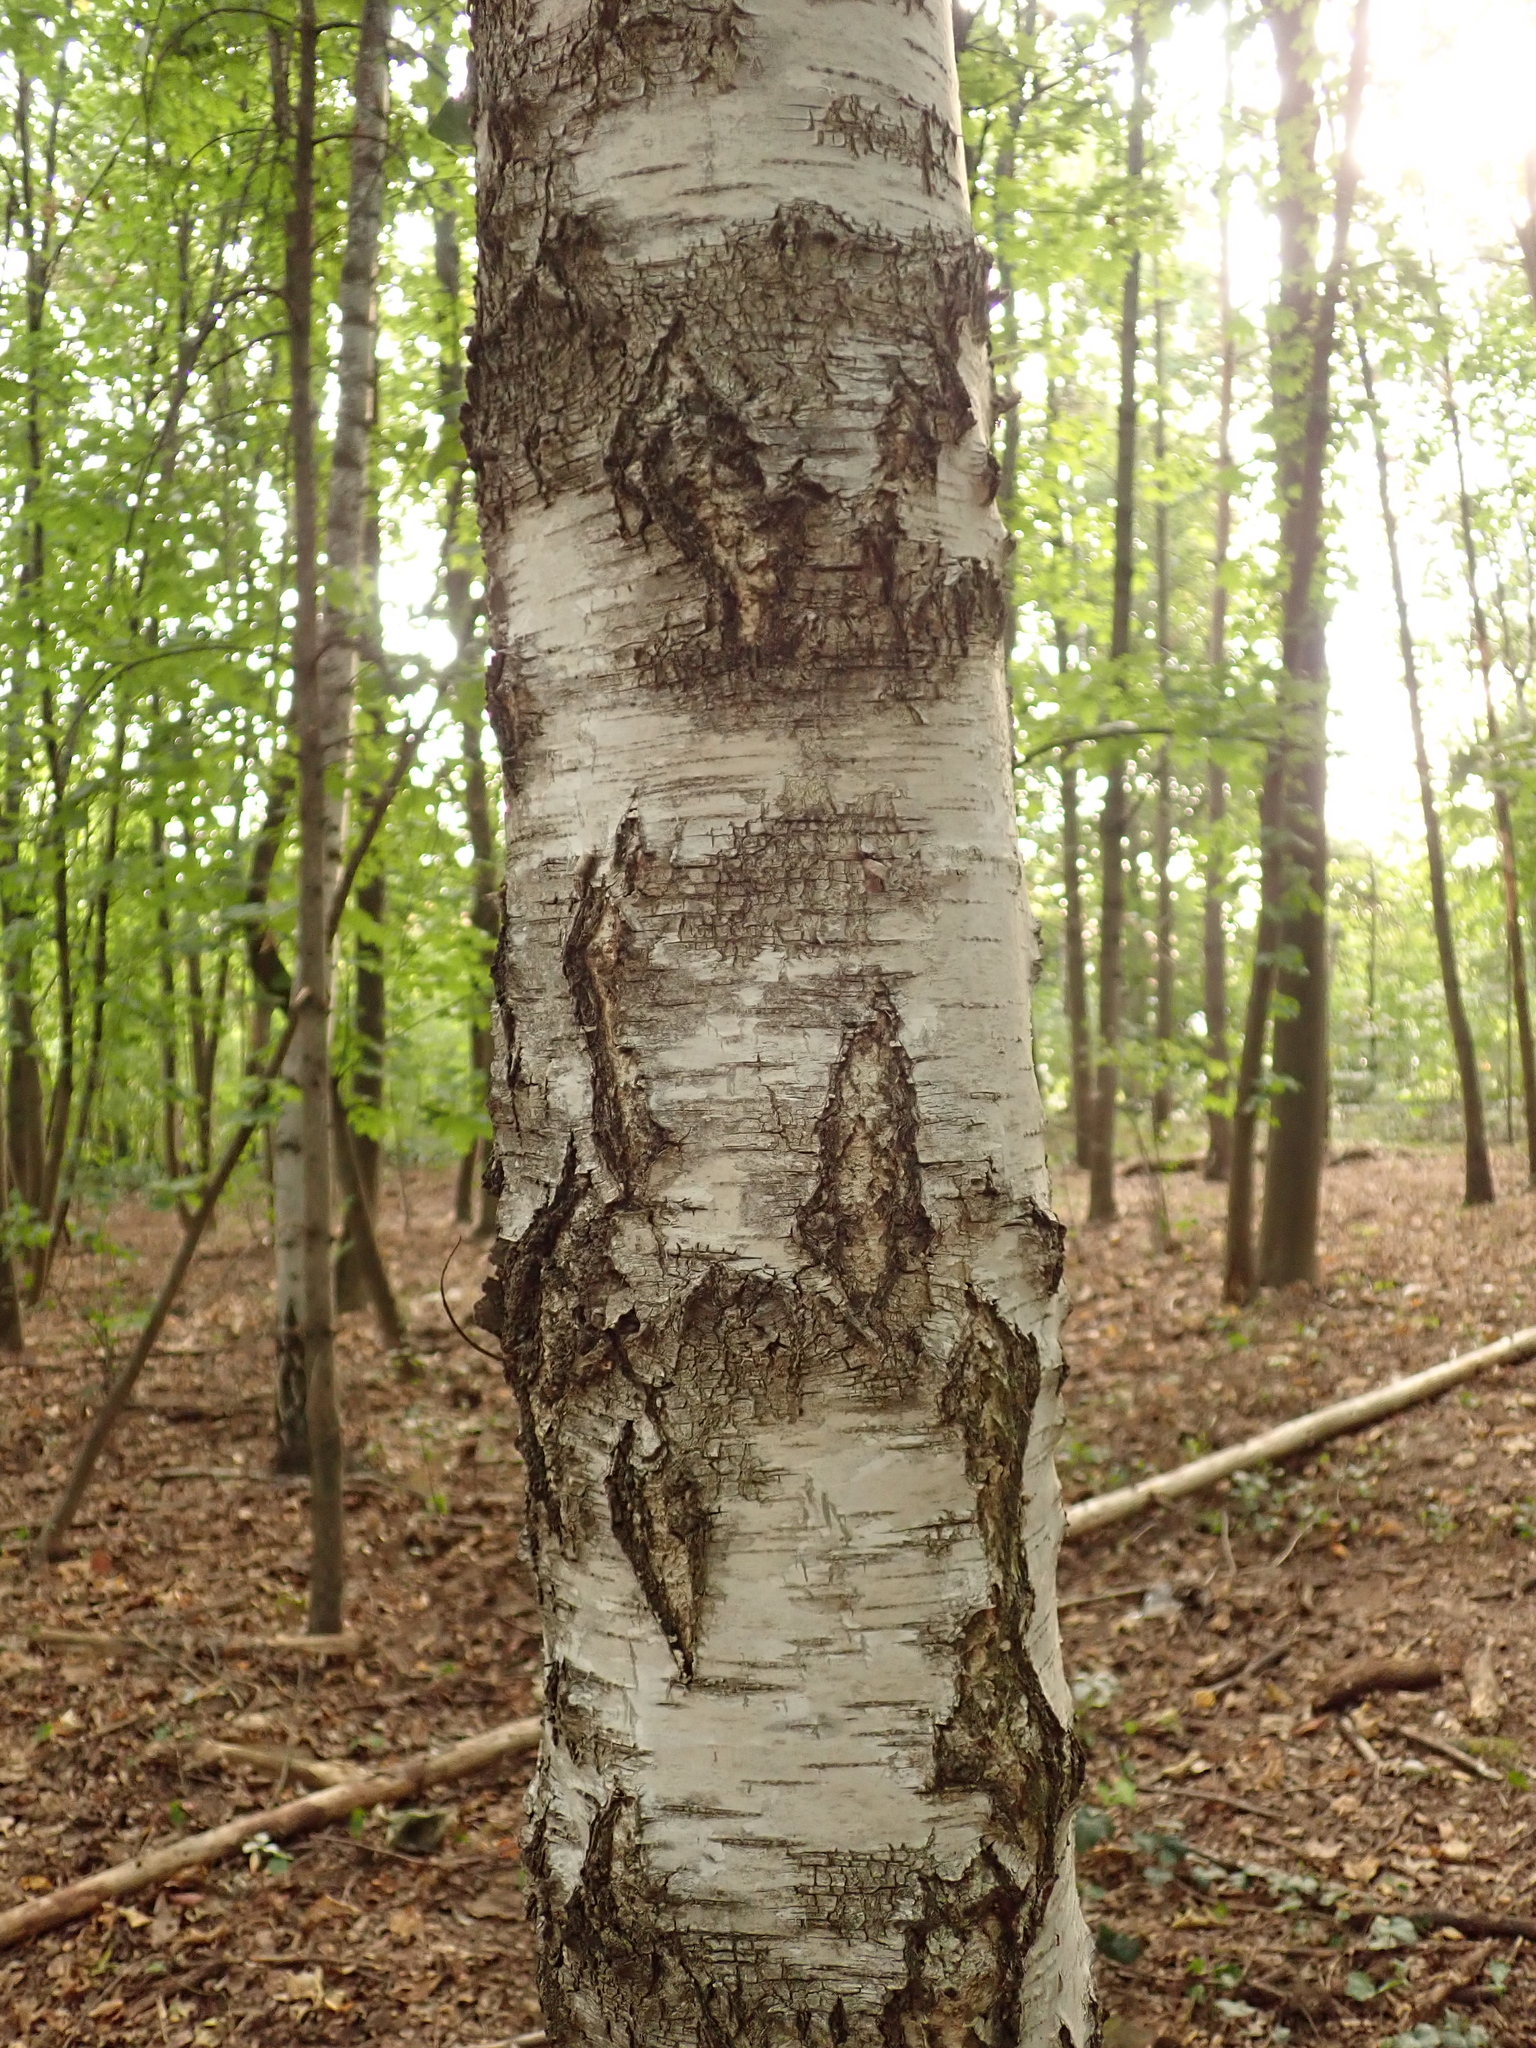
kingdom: Plantae
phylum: Tracheophyta
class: Magnoliopsida
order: Fagales
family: Betulaceae
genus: Betula
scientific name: Betula pendula
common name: Silver birch
